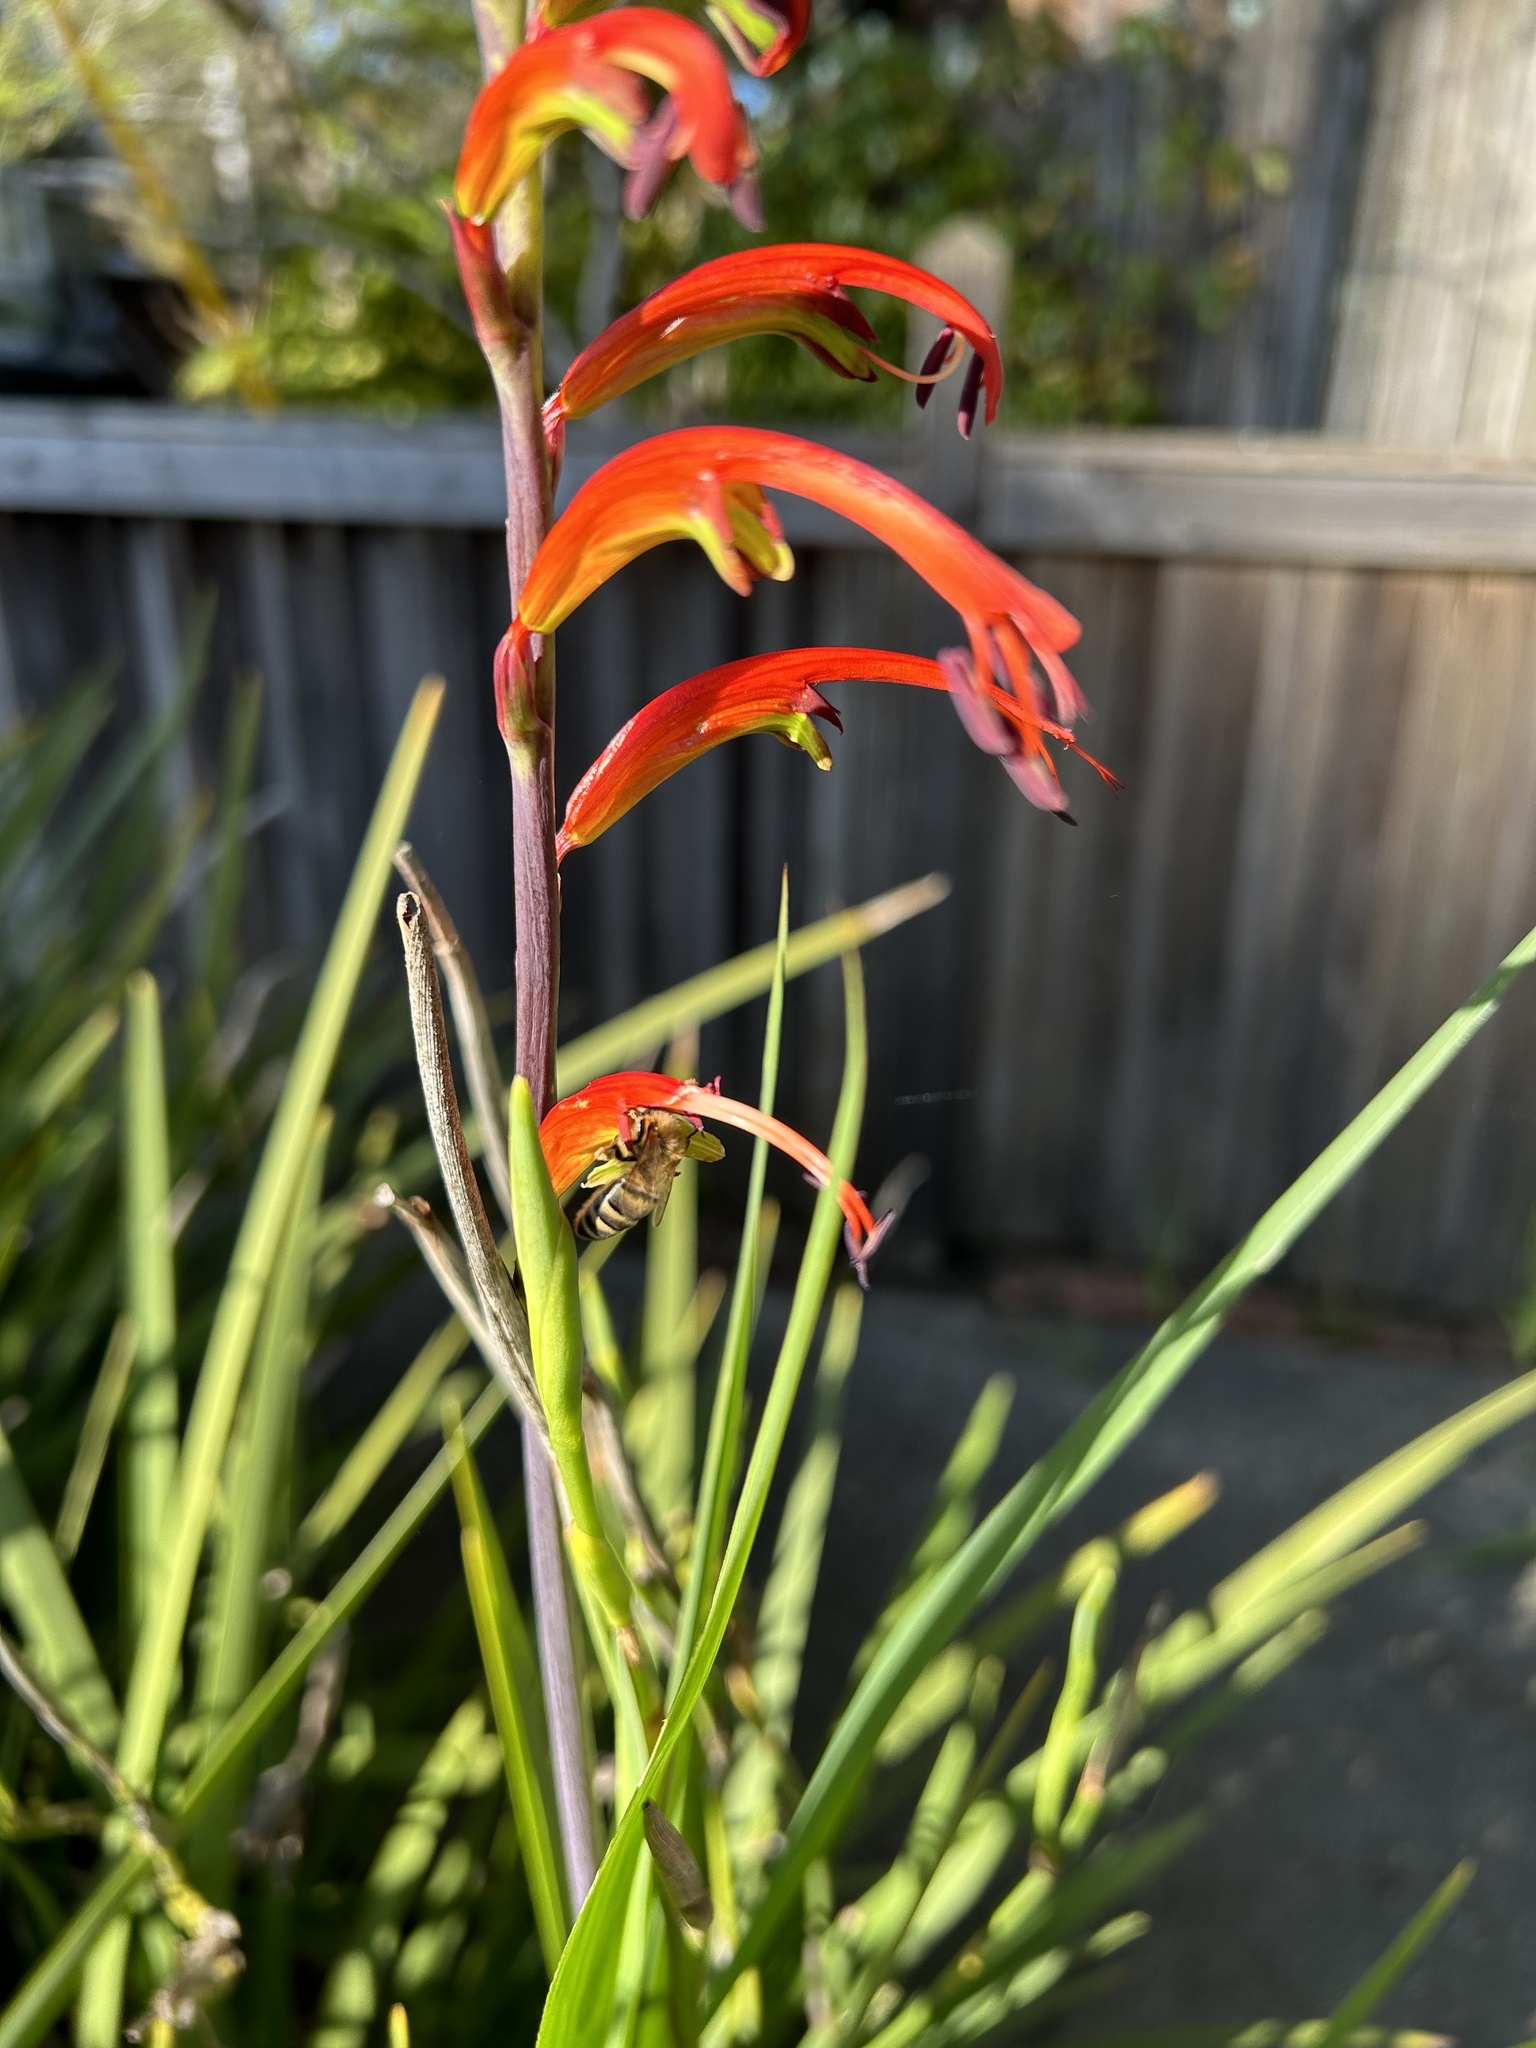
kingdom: Animalia
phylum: Arthropoda
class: Insecta
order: Hymenoptera
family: Apidae
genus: Apis
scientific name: Apis mellifera
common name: Honey bee
